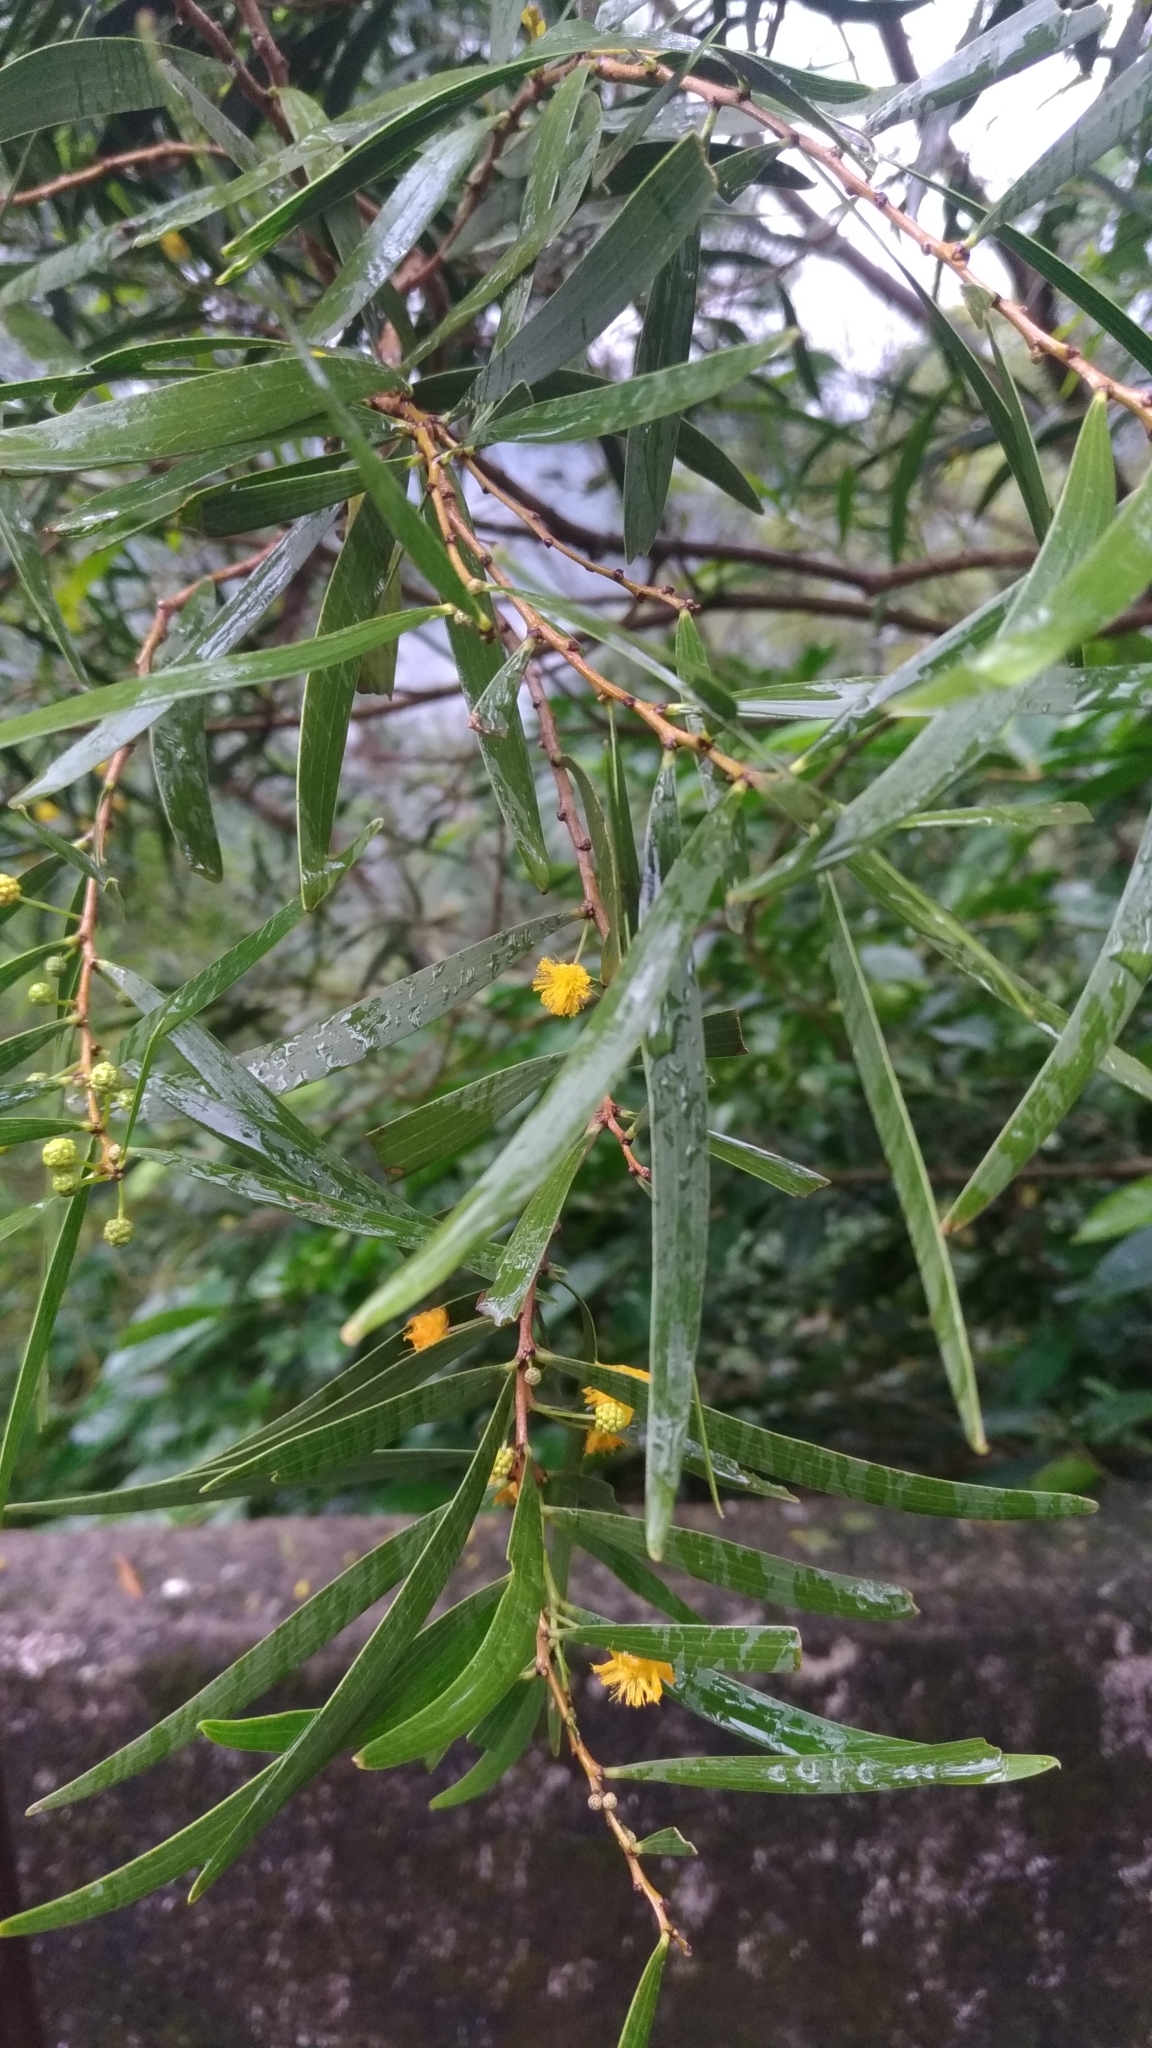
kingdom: Plantae
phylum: Tracheophyta
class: Magnoliopsida
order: Fabales
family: Fabaceae
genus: Acacia
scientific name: Acacia confusa
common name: Formosan koa
